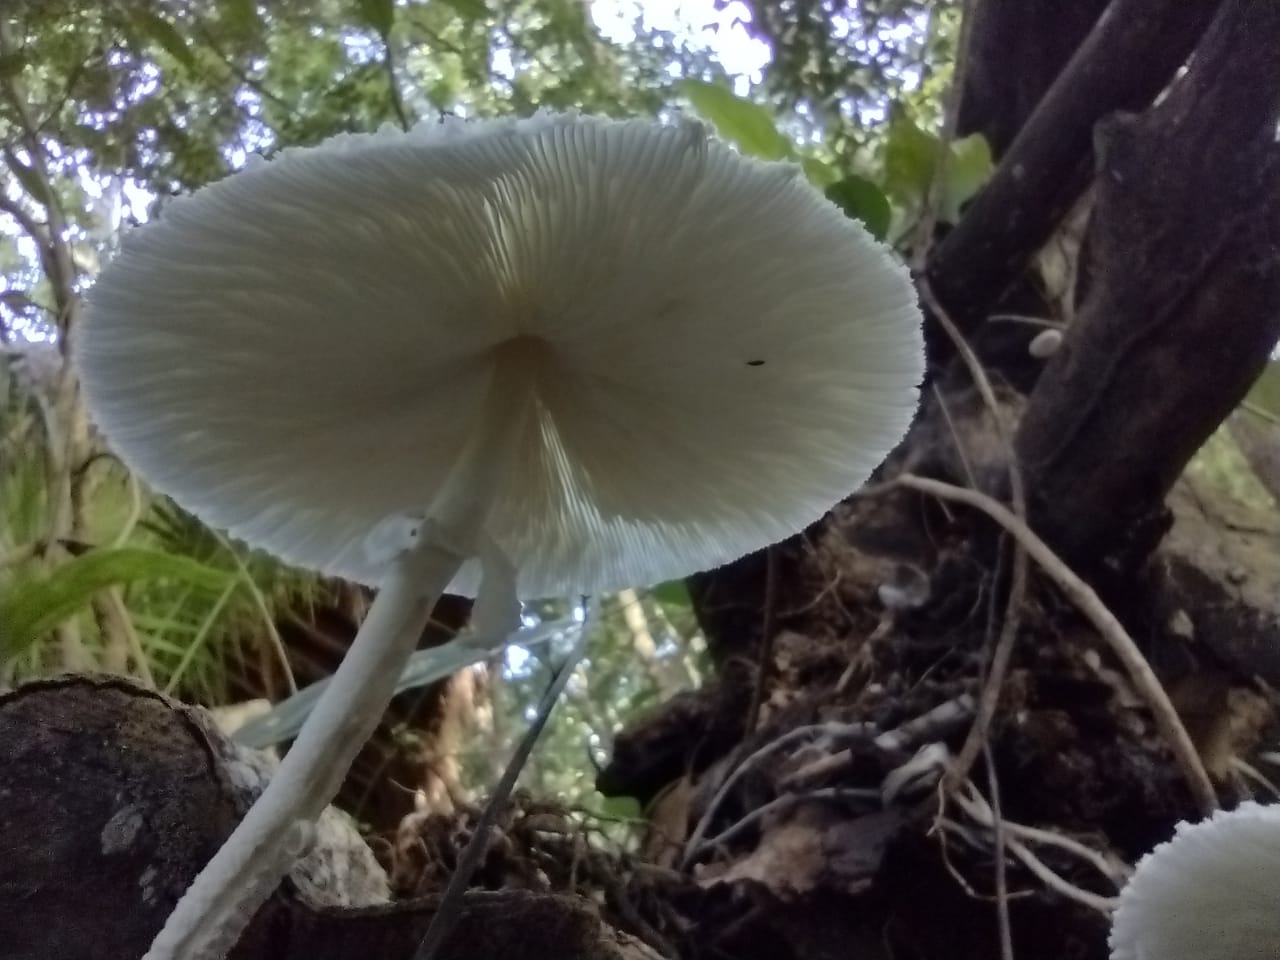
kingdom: Fungi
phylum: Basidiomycota
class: Agaricomycetes
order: Agaricales
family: Agaricaceae
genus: Leucocoprinus
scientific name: Leucocoprinus cepistipes
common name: Onion-stalk parasol
